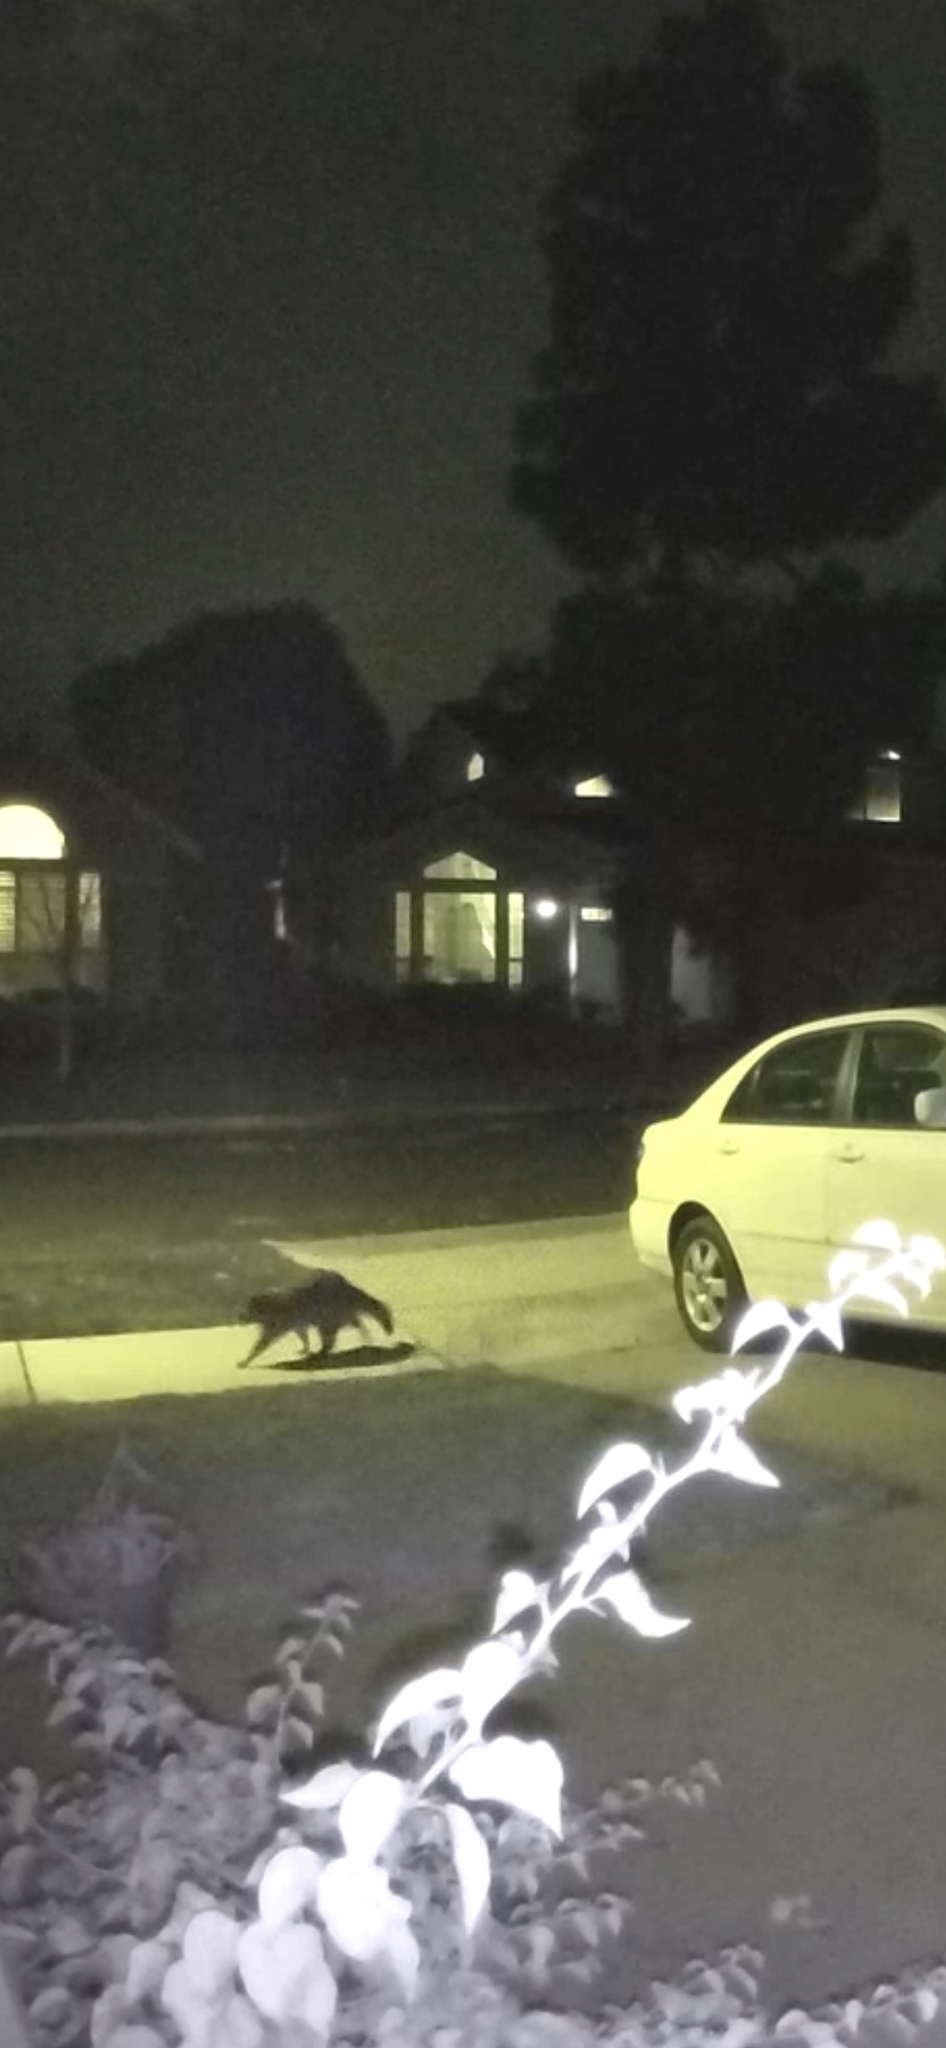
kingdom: Animalia
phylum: Chordata
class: Mammalia
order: Carnivora
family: Procyonidae
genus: Procyon
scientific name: Procyon lotor
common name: Raccoon
